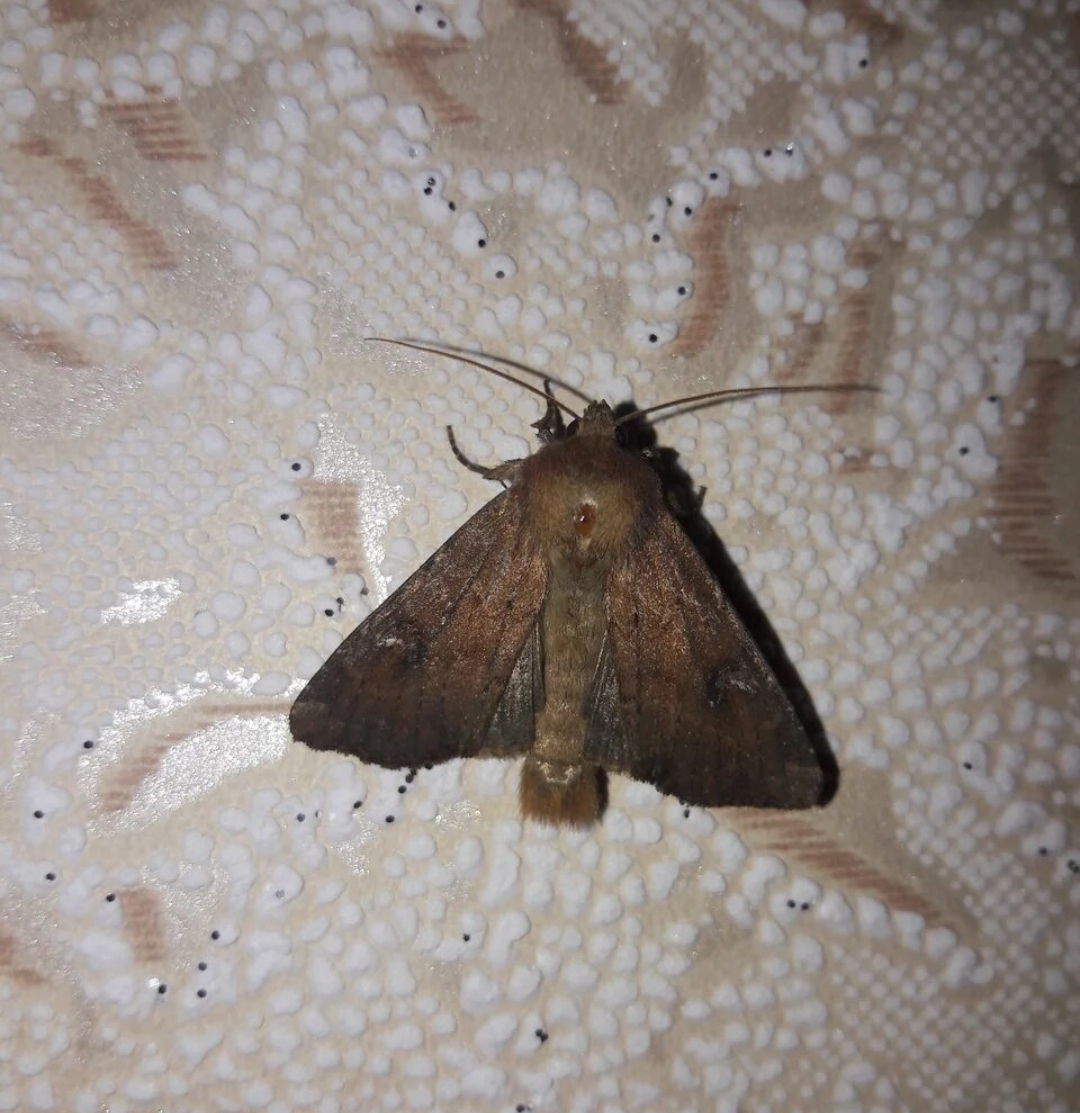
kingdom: Animalia
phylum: Arthropoda
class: Insecta
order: Lepidoptera
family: Noctuidae
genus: Apamea
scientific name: Apamea lateritia
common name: Scarce brindle
